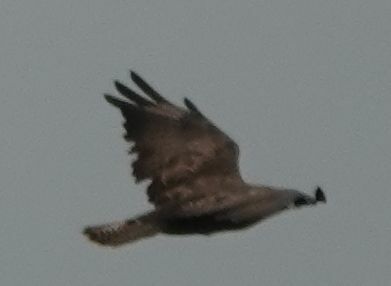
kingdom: Animalia
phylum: Chordata
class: Aves
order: Accipitriformes
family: Accipitridae
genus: Buteo
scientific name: Buteo buteo
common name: Common buzzard
